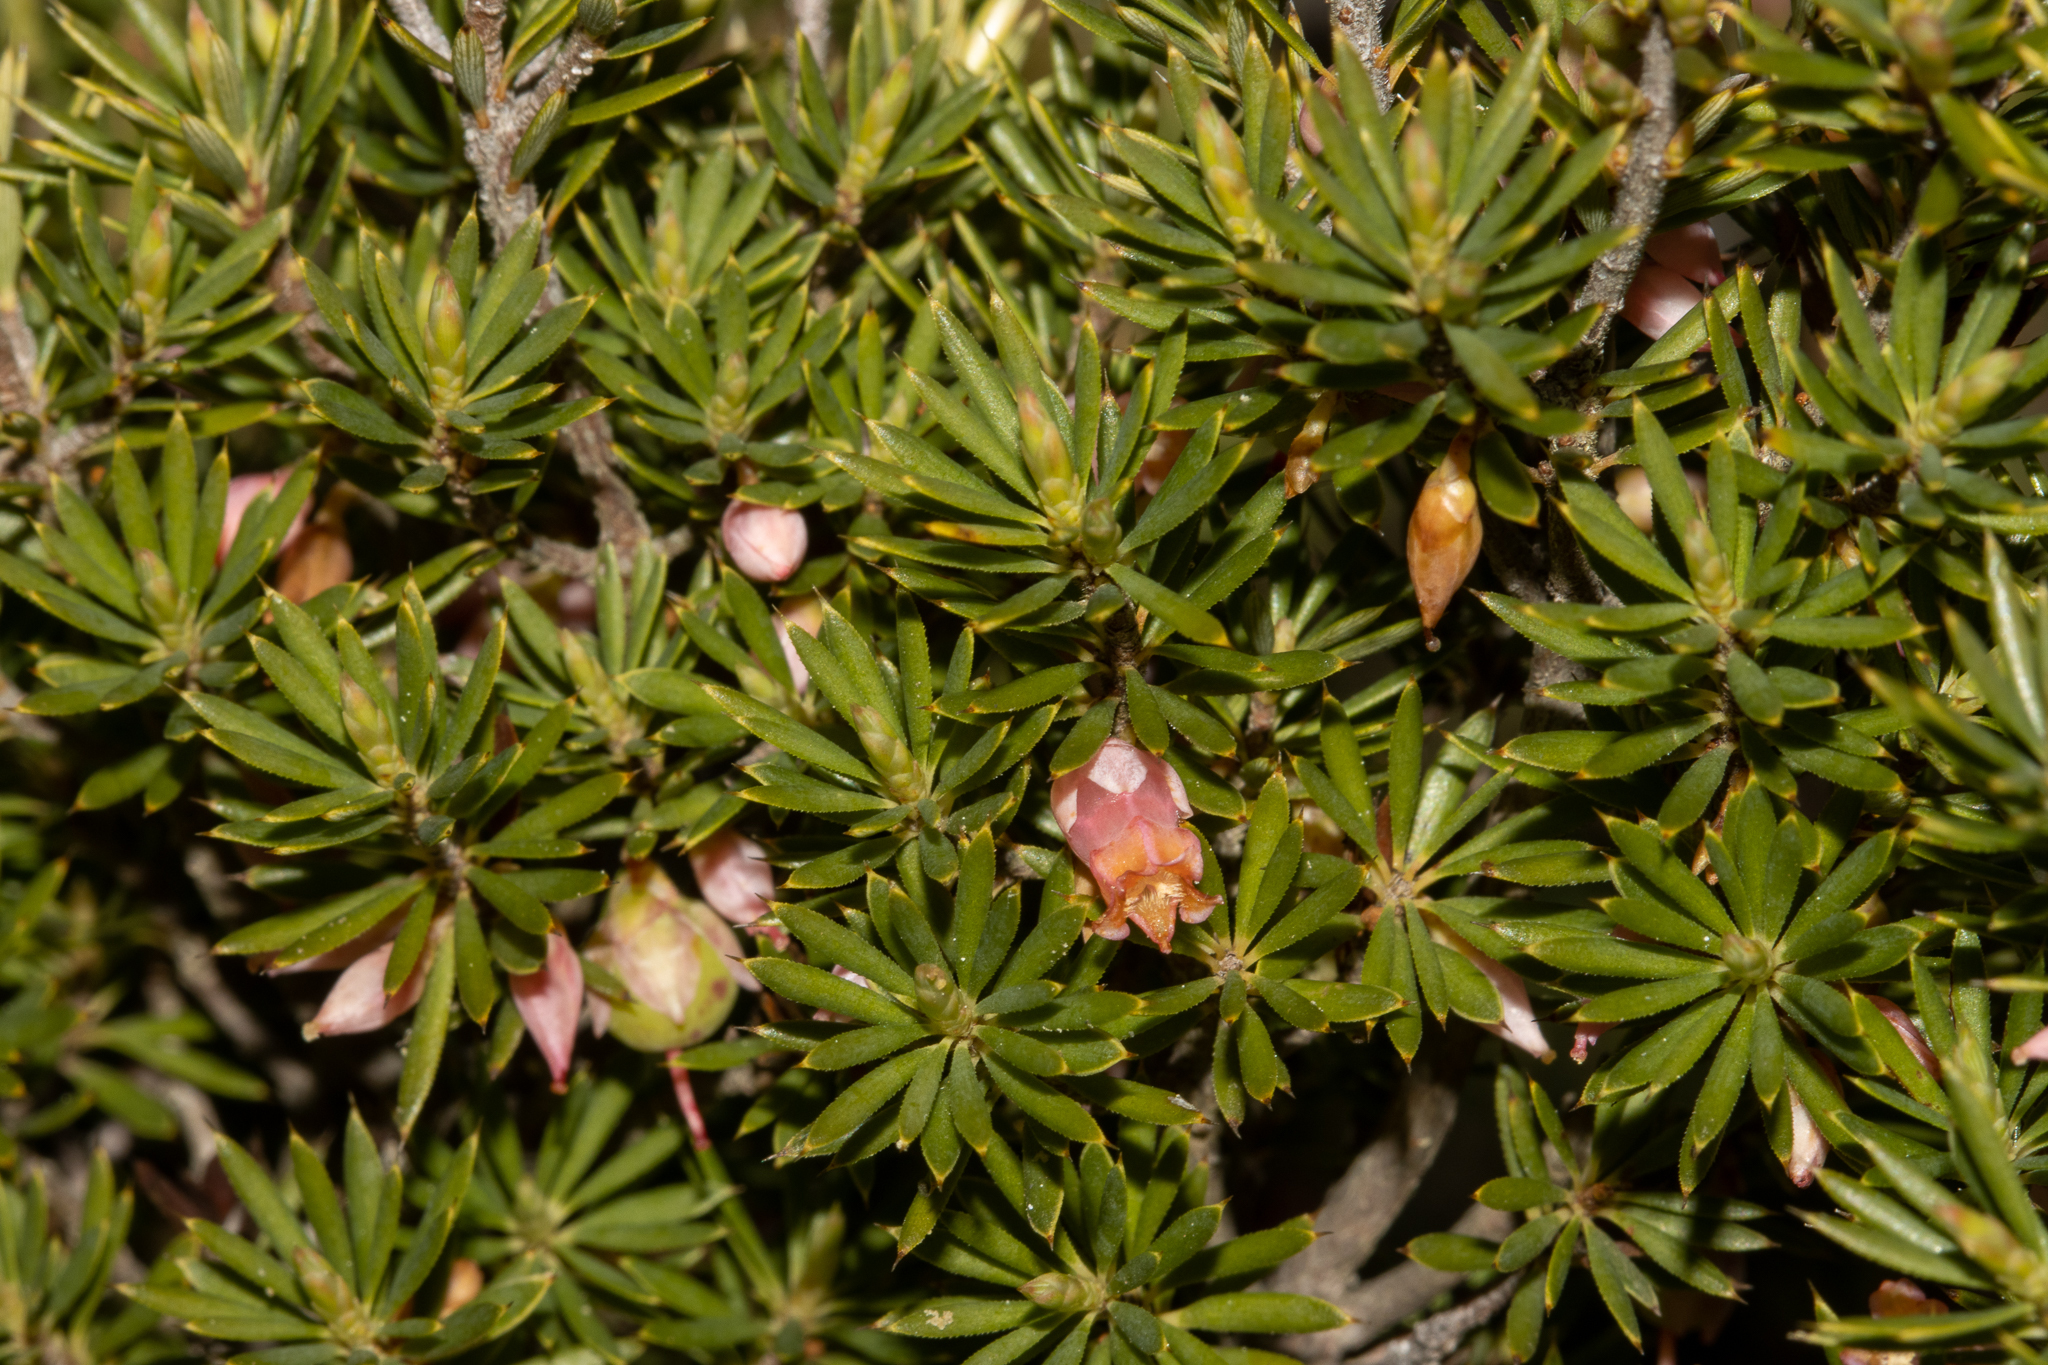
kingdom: Plantae
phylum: Tracheophyta
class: Magnoliopsida
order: Ericales
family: Ericaceae
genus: Brachyloma
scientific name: Brachyloma ericoides
